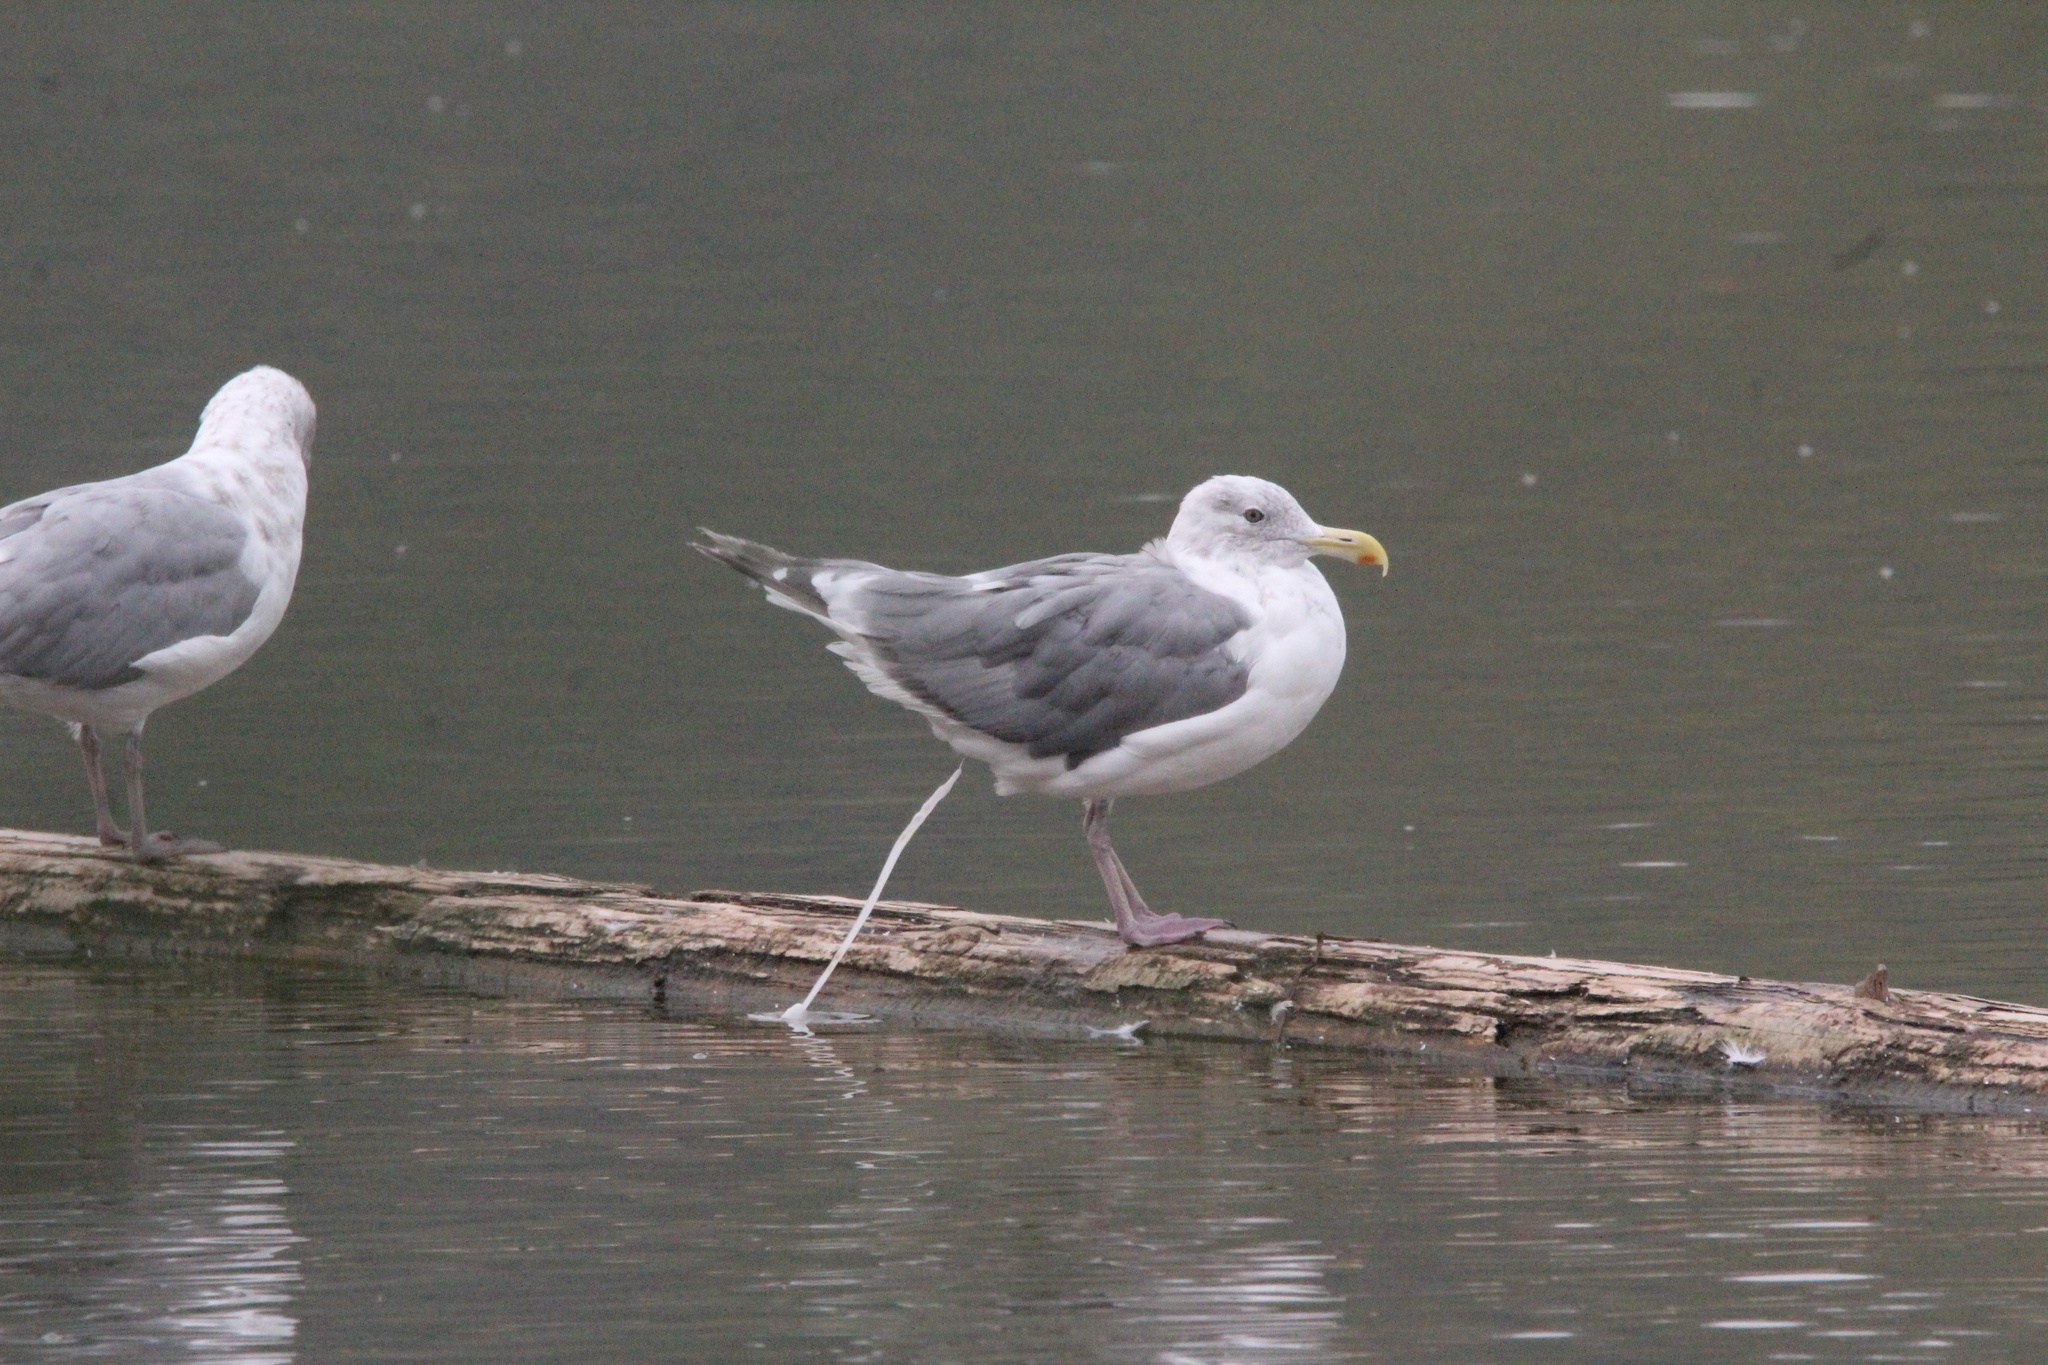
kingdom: Animalia
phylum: Chordata
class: Aves
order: Charadriiformes
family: Laridae
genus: Larus
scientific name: Larus
